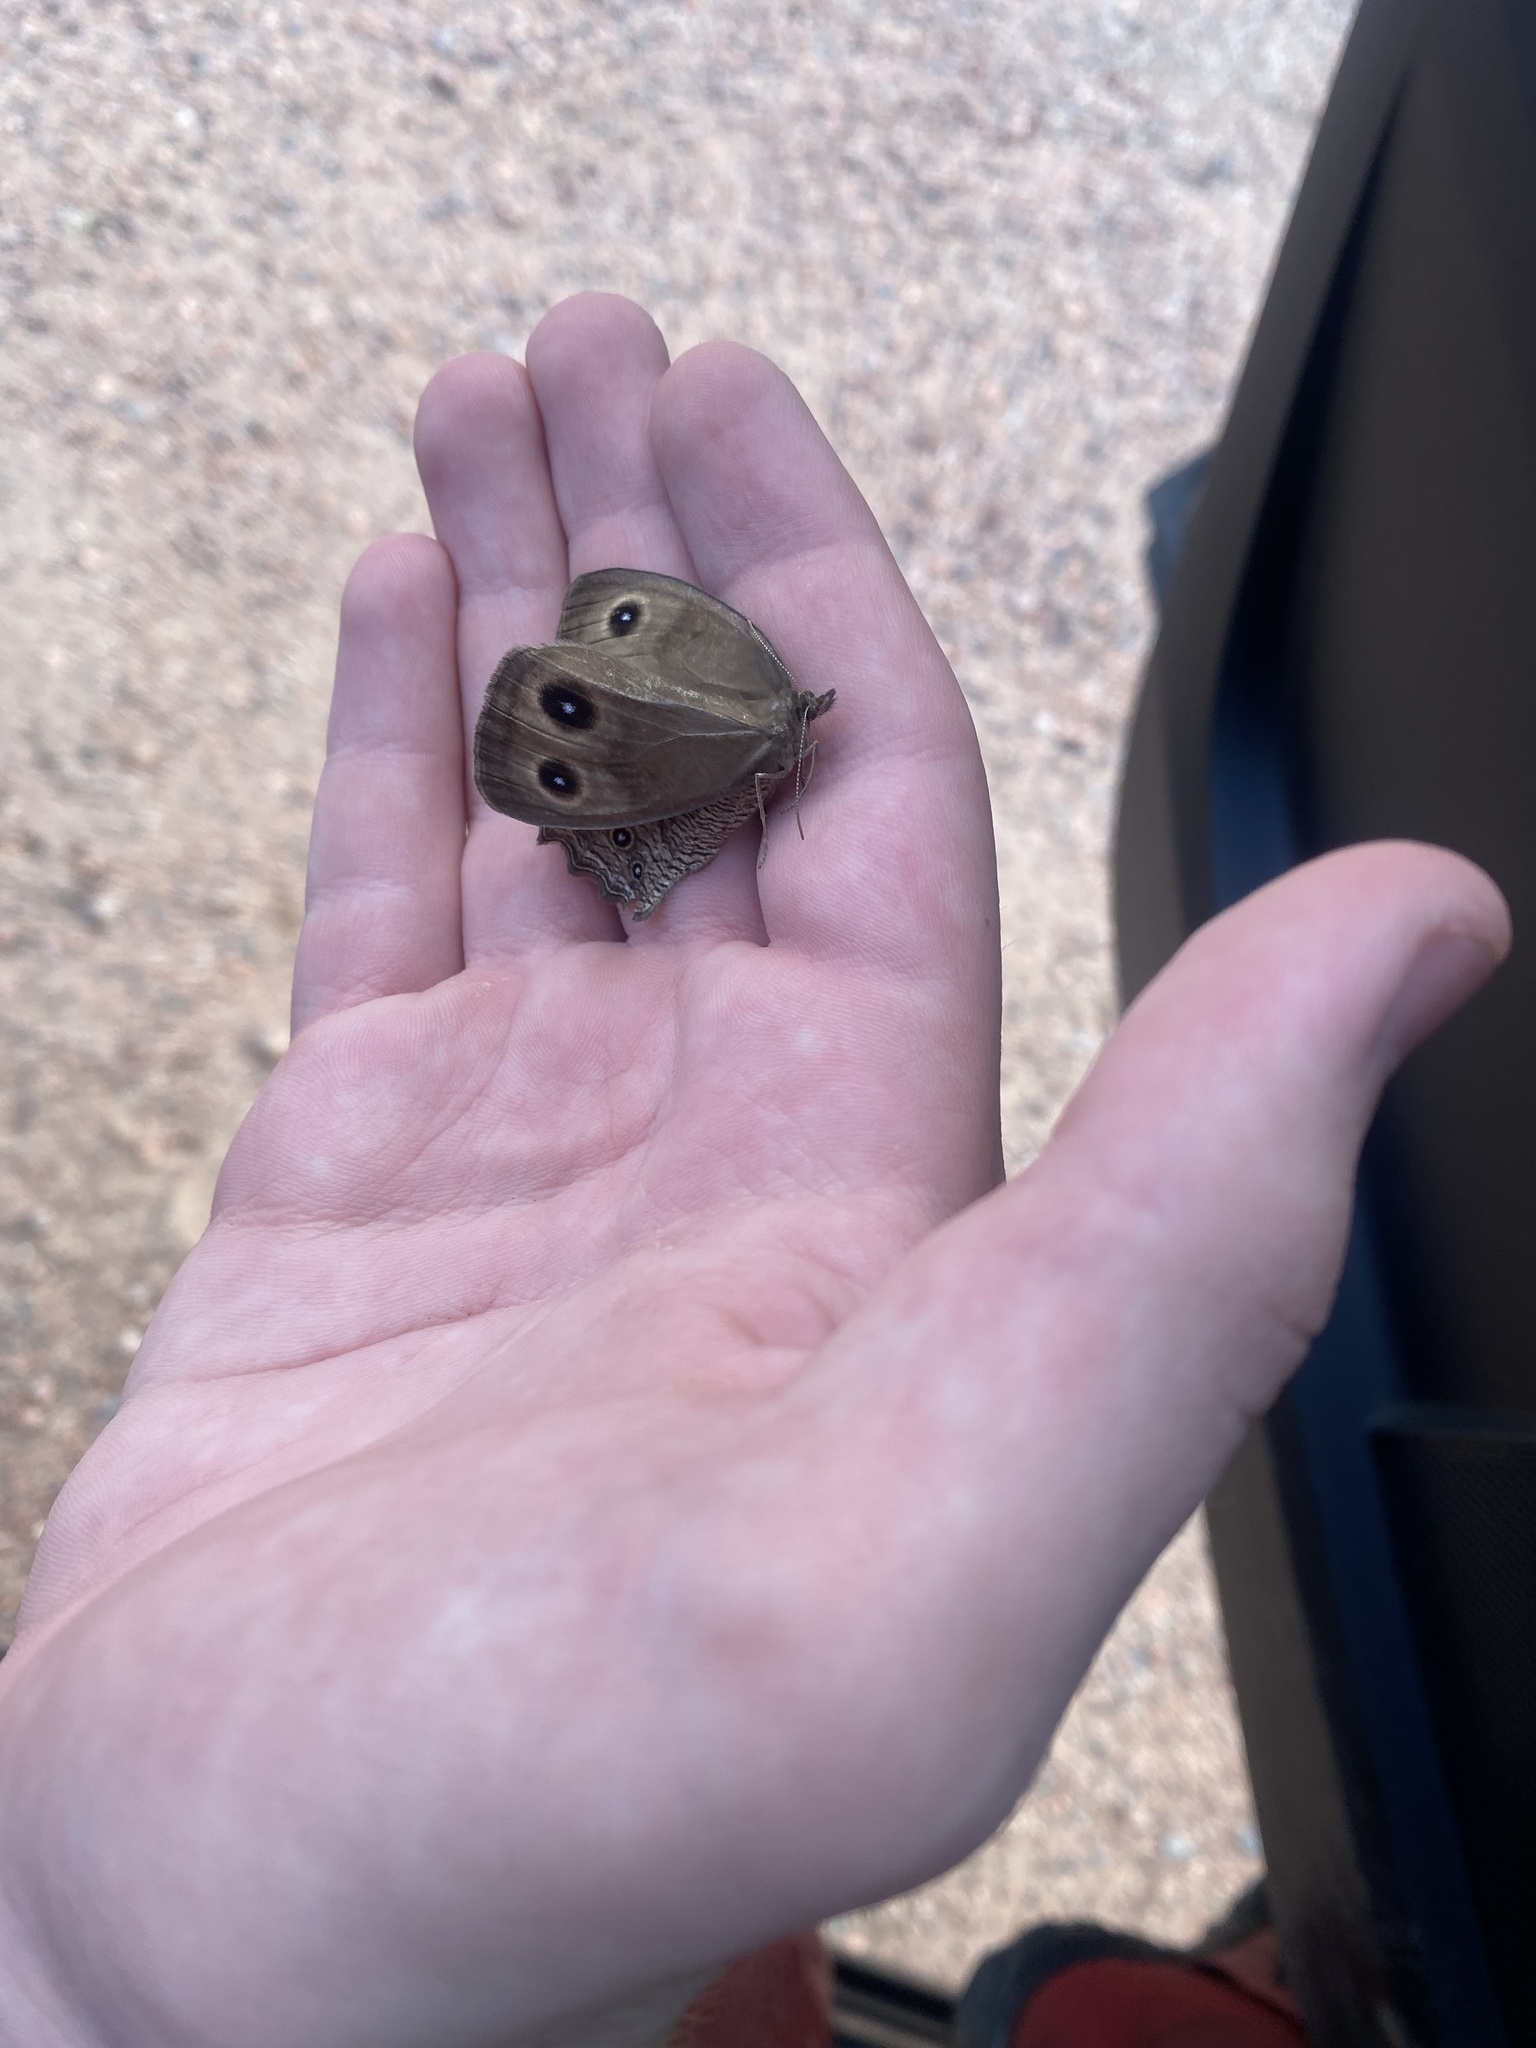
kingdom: Animalia
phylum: Arthropoda
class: Insecta
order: Lepidoptera
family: Nymphalidae
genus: Cercyonis
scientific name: Cercyonis pegala
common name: Common wood-nymph
